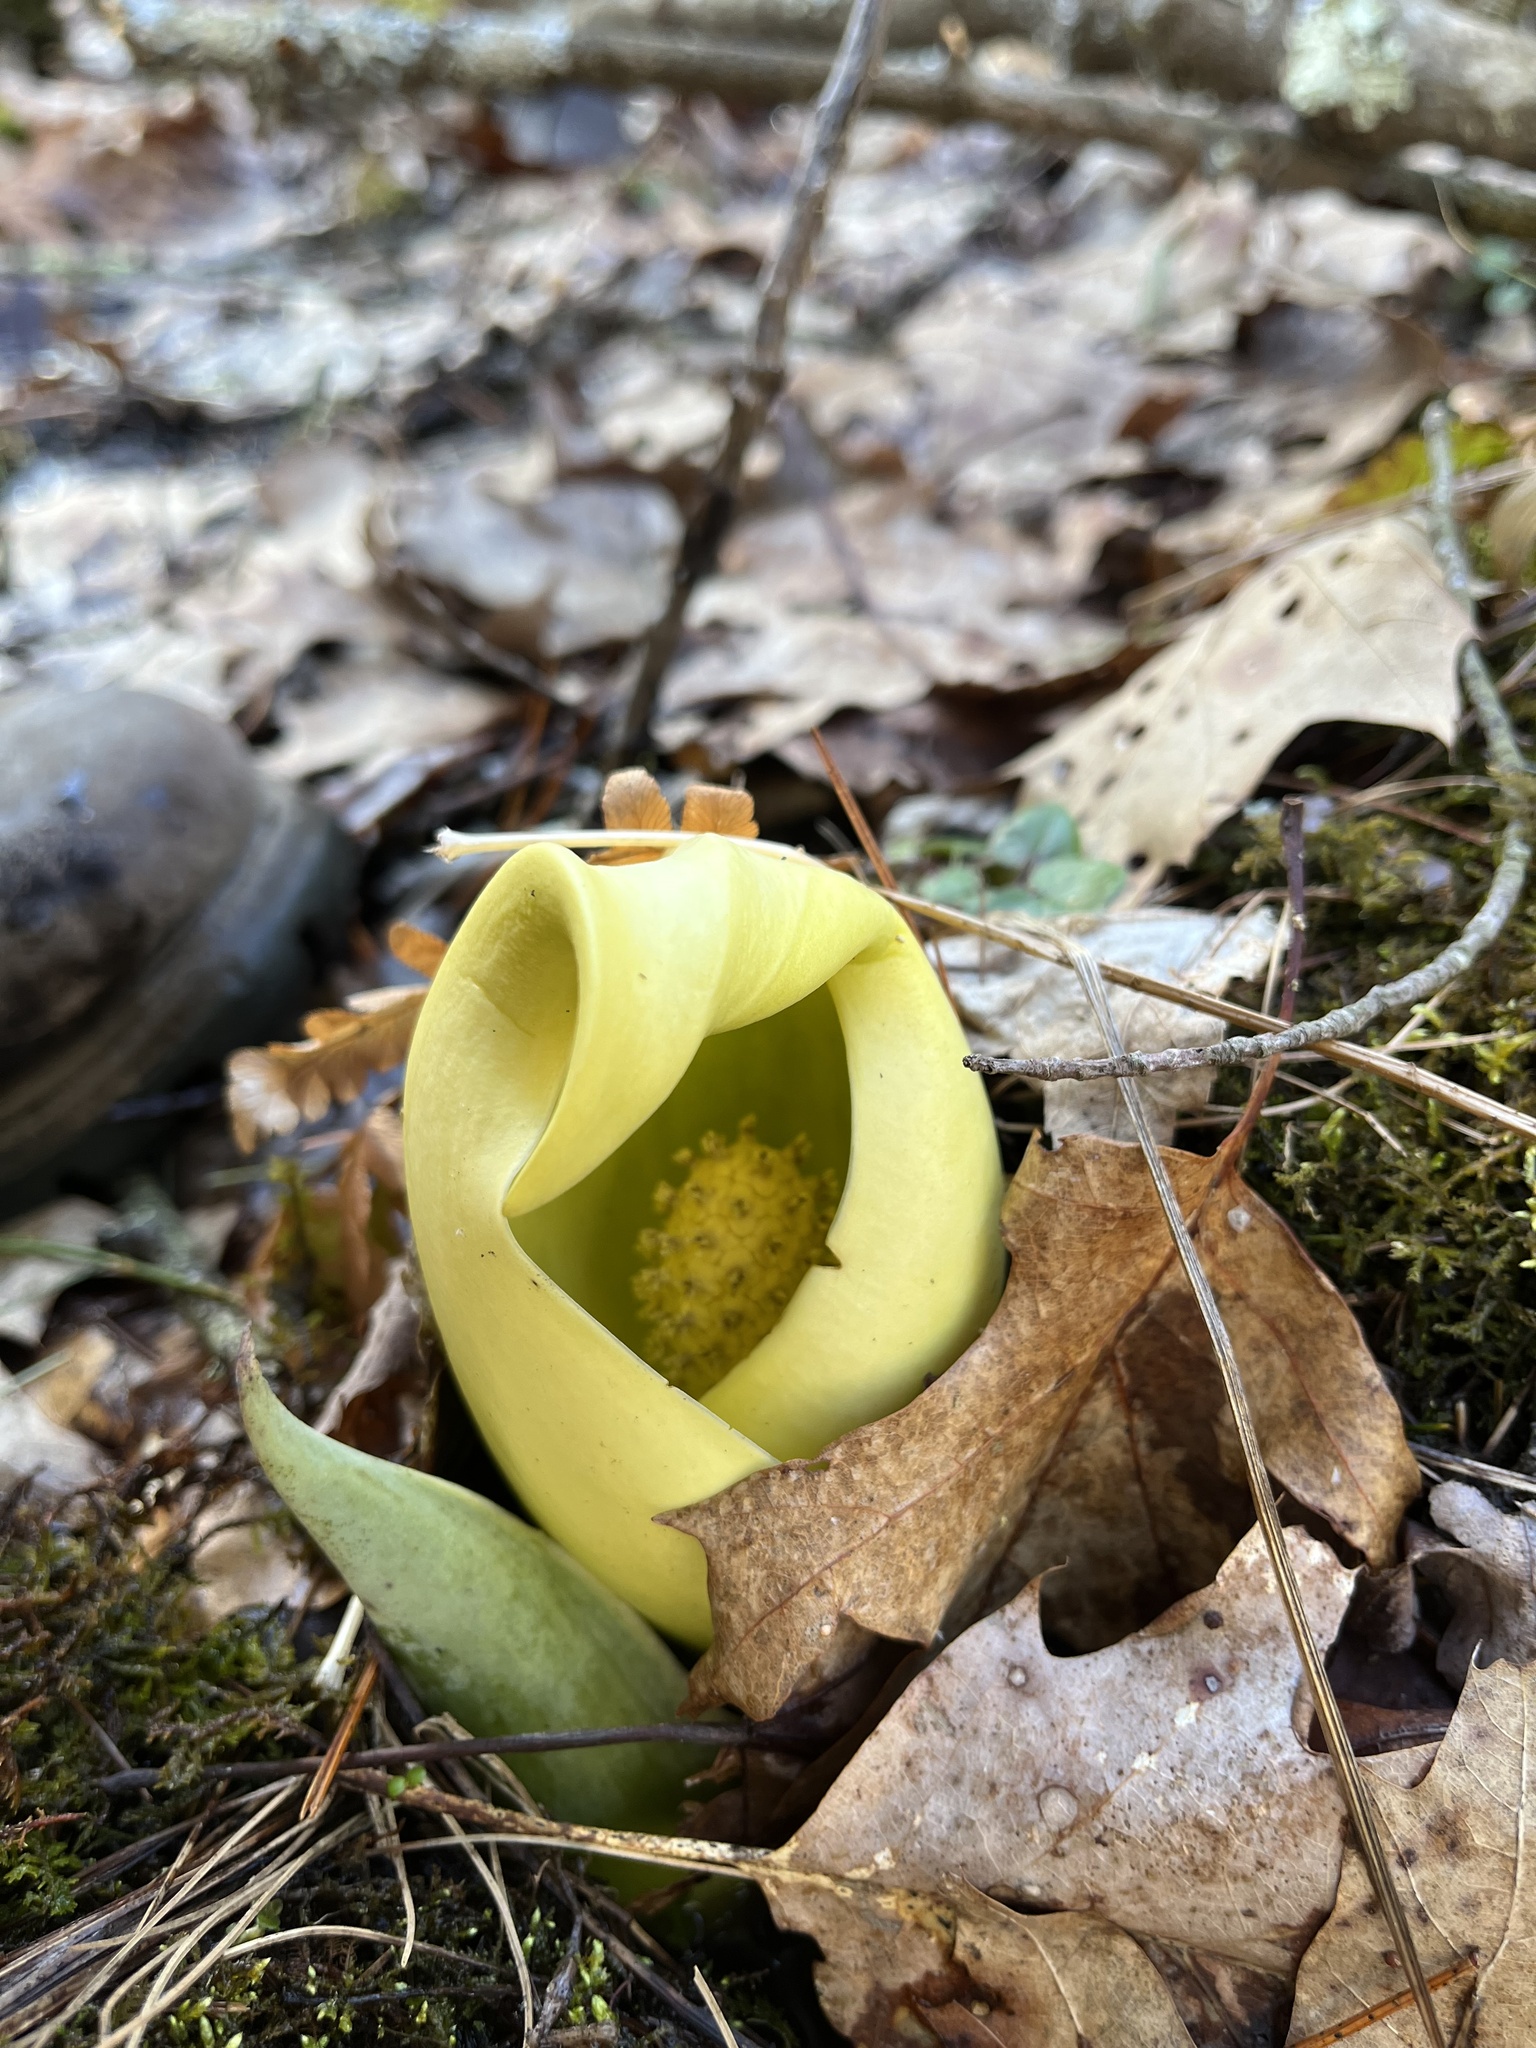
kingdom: Plantae
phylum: Tracheophyta
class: Liliopsida
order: Alismatales
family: Araceae
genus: Symplocarpus
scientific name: Symplocarpus foetidus
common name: Eastern skunk cabbage
